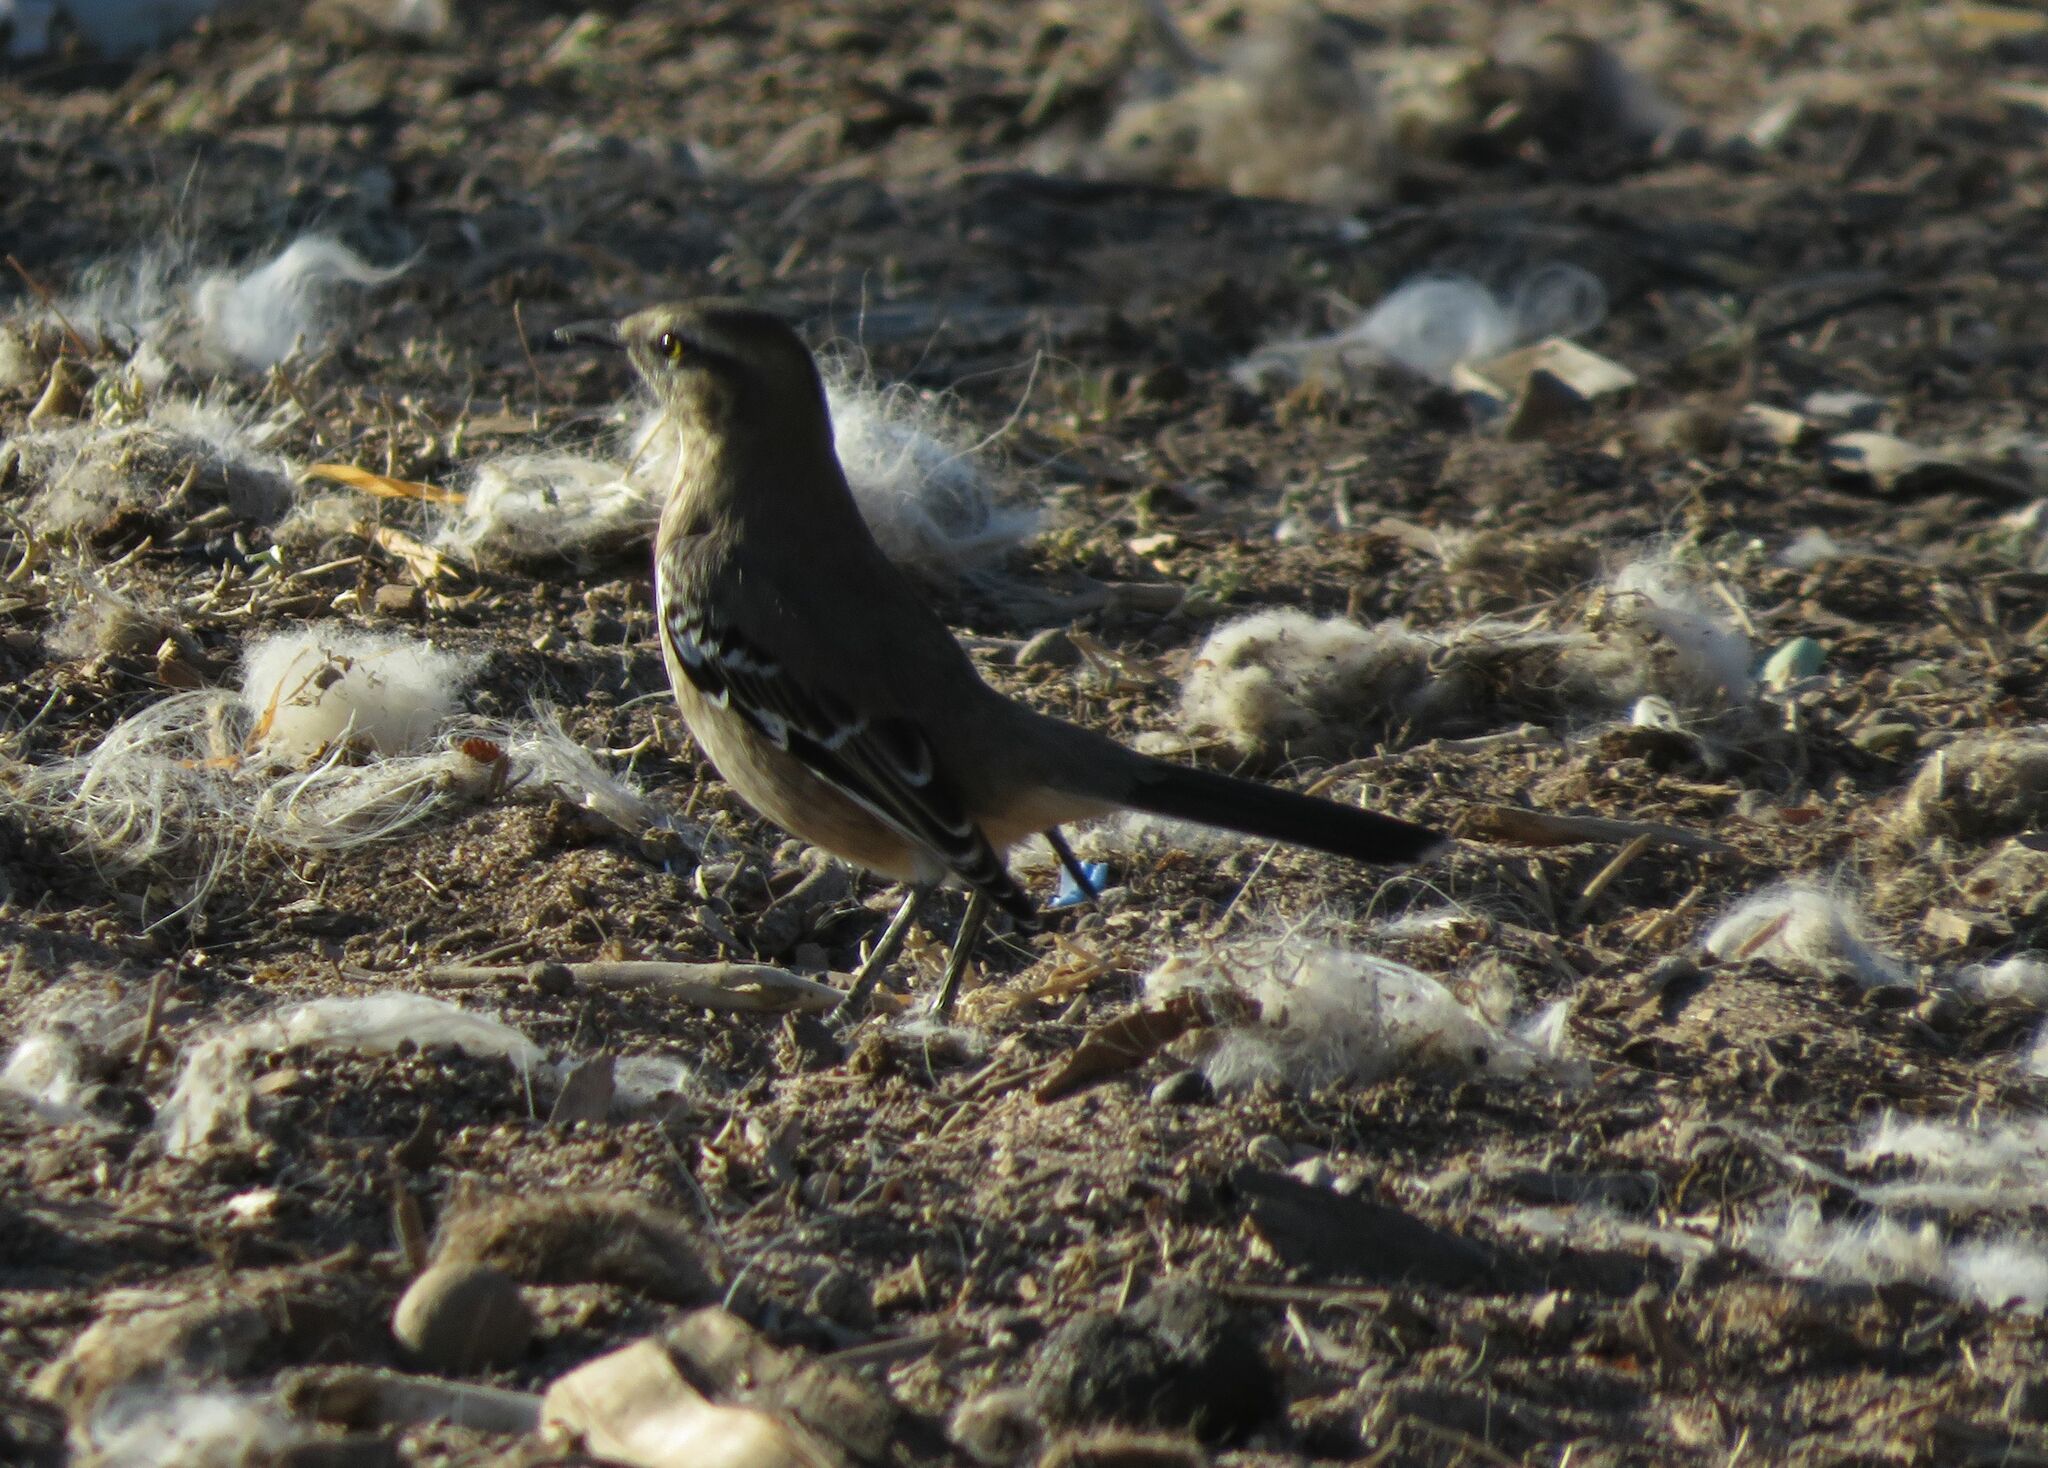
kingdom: Animalia
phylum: Chordata
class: Aves
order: Passeriformes
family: Mimidae
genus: Mimus
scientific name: Mimus patagonicus
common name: Patagonian mockingbird
